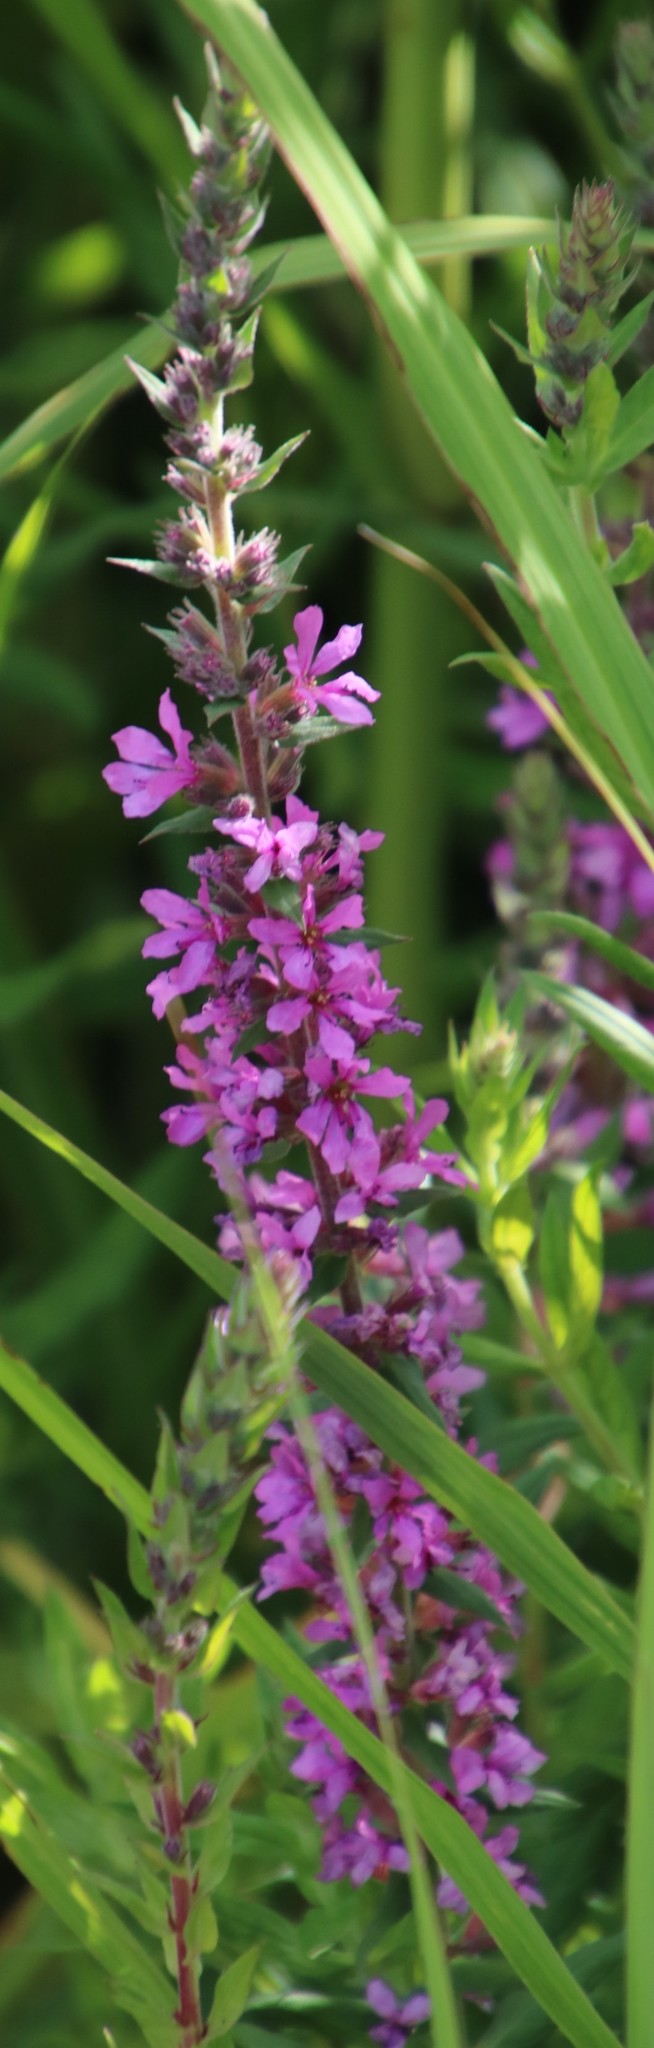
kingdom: Plantae
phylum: Tracheophyta
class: Magnoliopsida
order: Myrtales
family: Lythraceae
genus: Lythrum
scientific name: Lythrum salicaria
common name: Purple loosestrife
